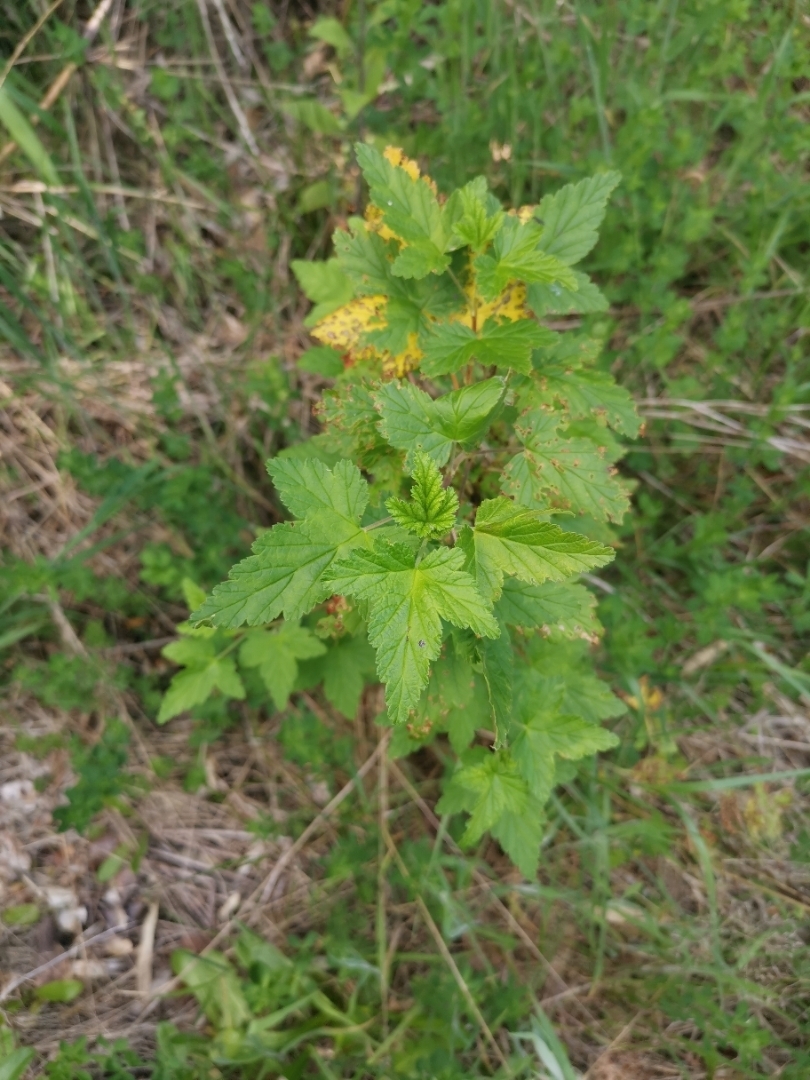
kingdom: Plantae
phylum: Tracheophyta
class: Magnoliopsida
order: Saxifragales
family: Grossulariaceae
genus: Ribes
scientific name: Ribes magellanicum
